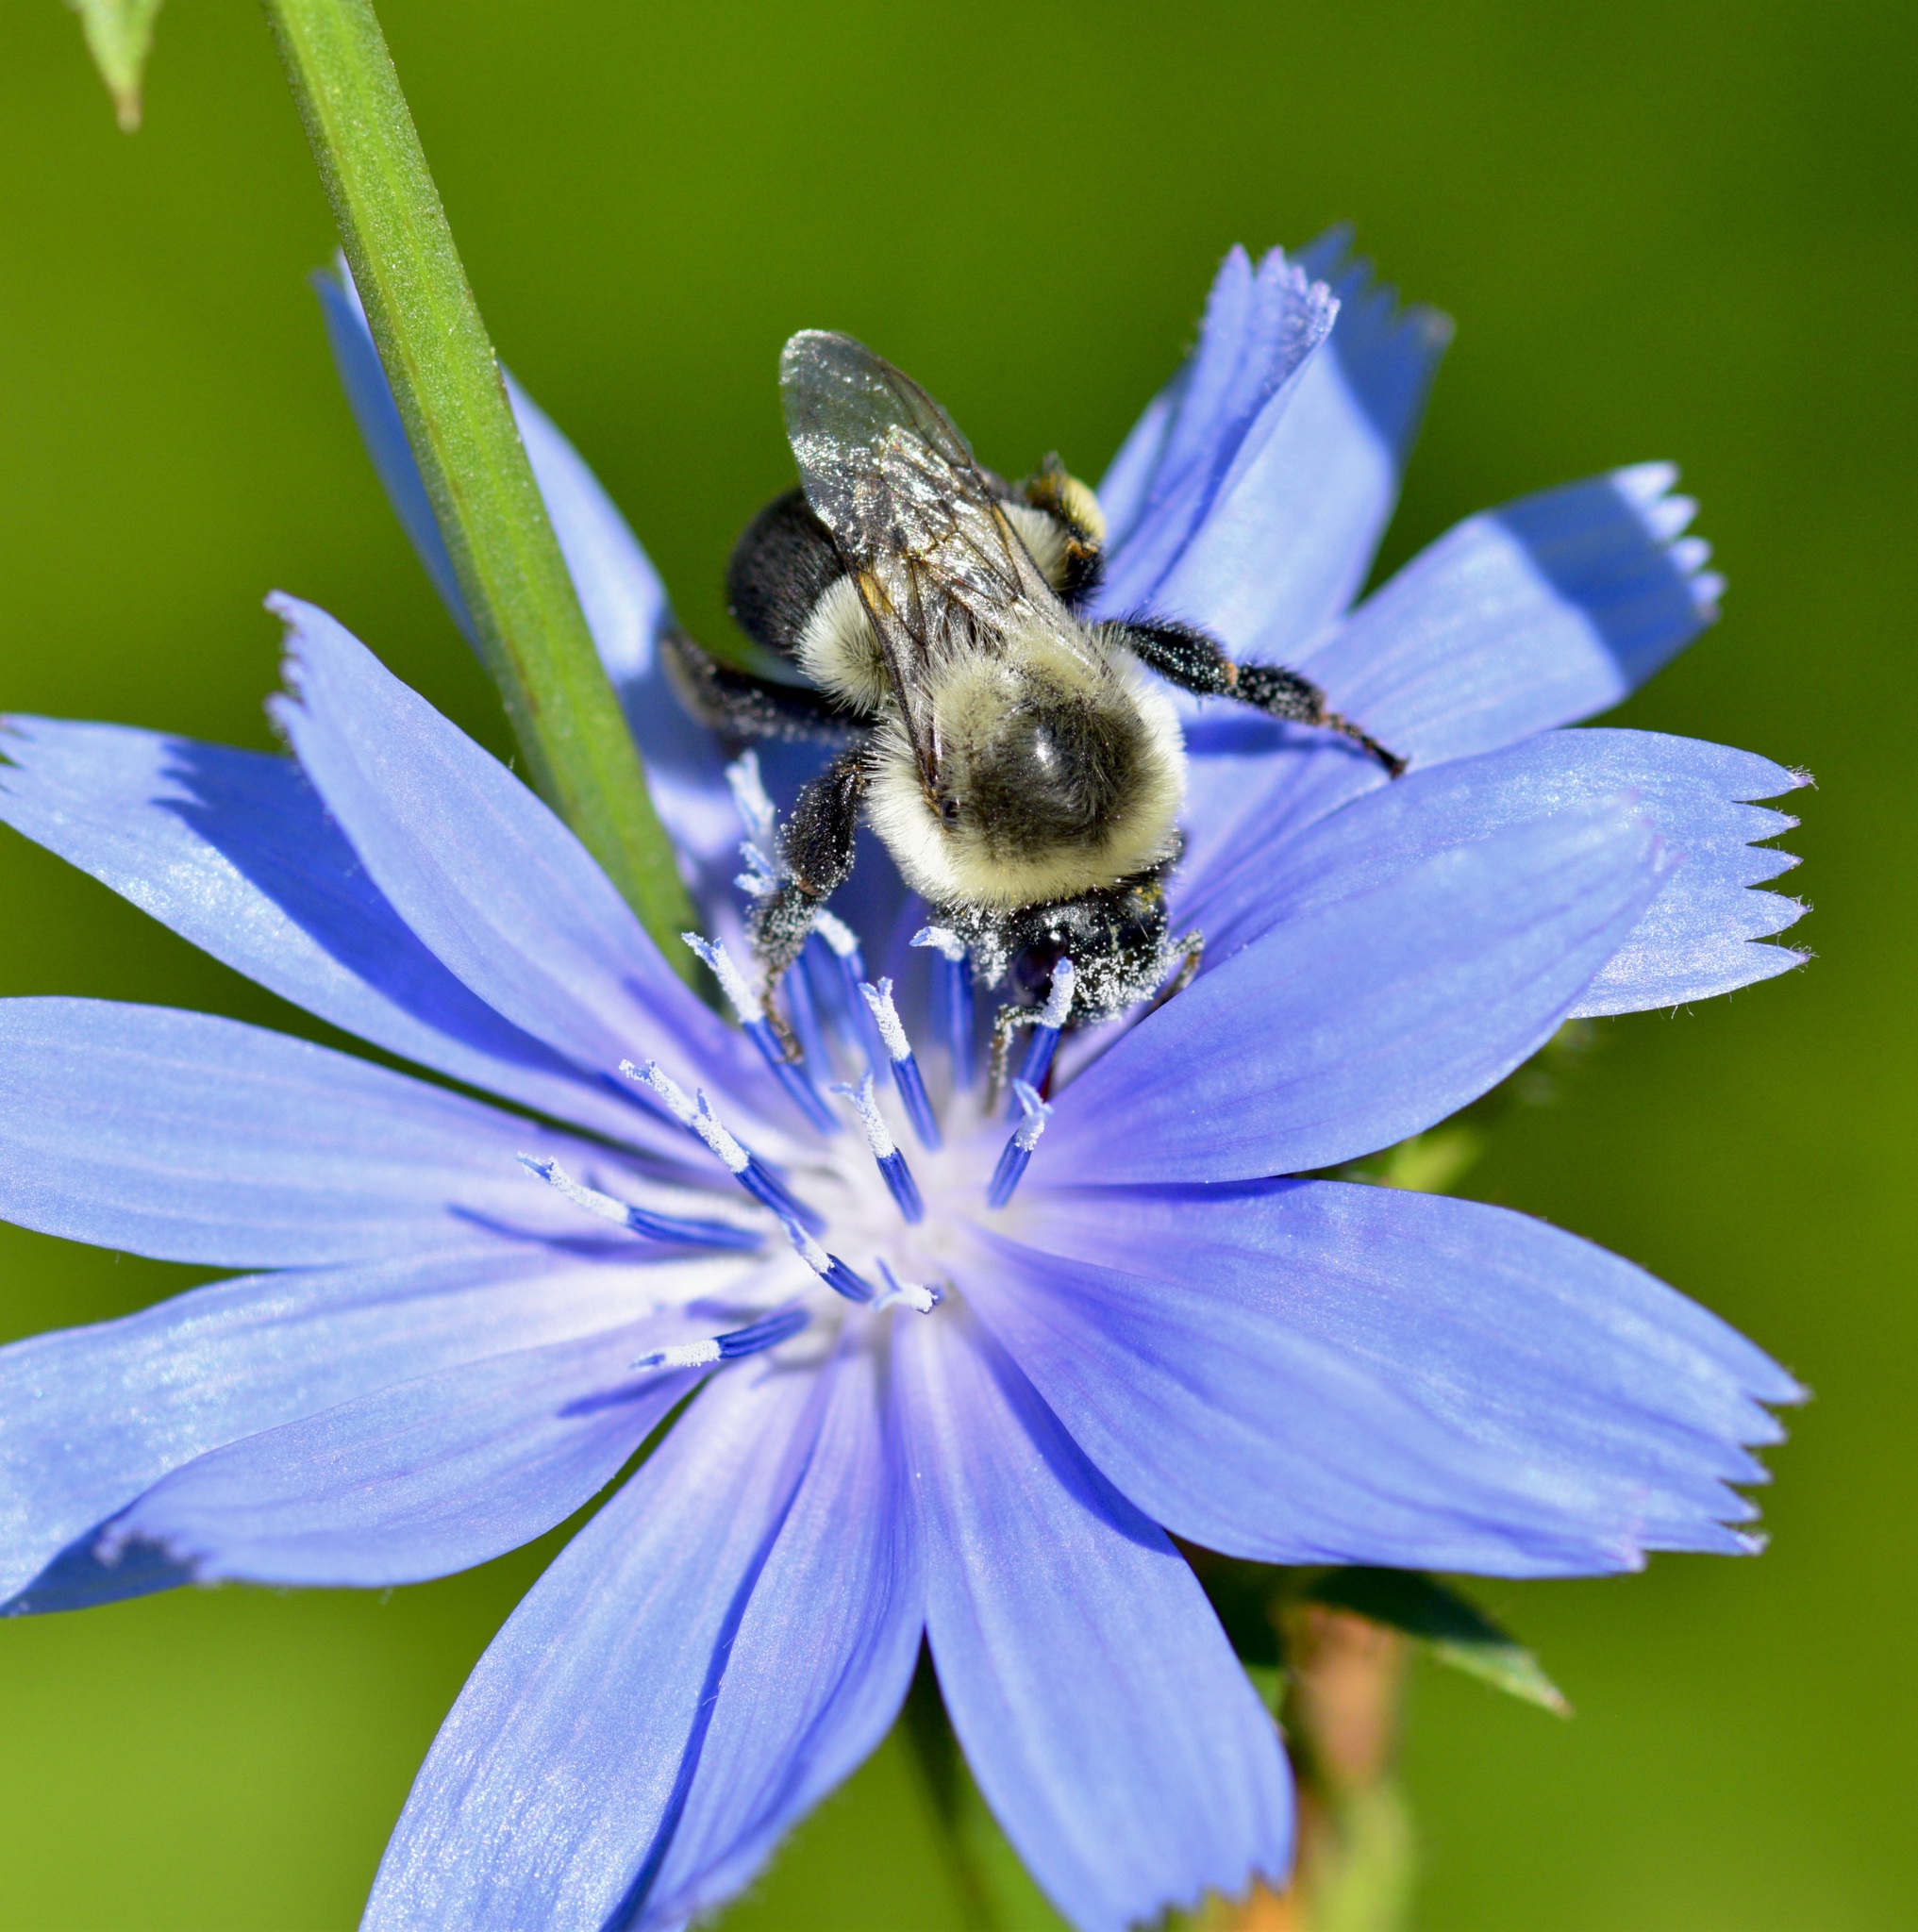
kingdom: Animalia
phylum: Arthropoda
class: Insecta
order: Hymenoptera
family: Apidae
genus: Bombus
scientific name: Bombus impatiens
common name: Common eastern bumble bee
